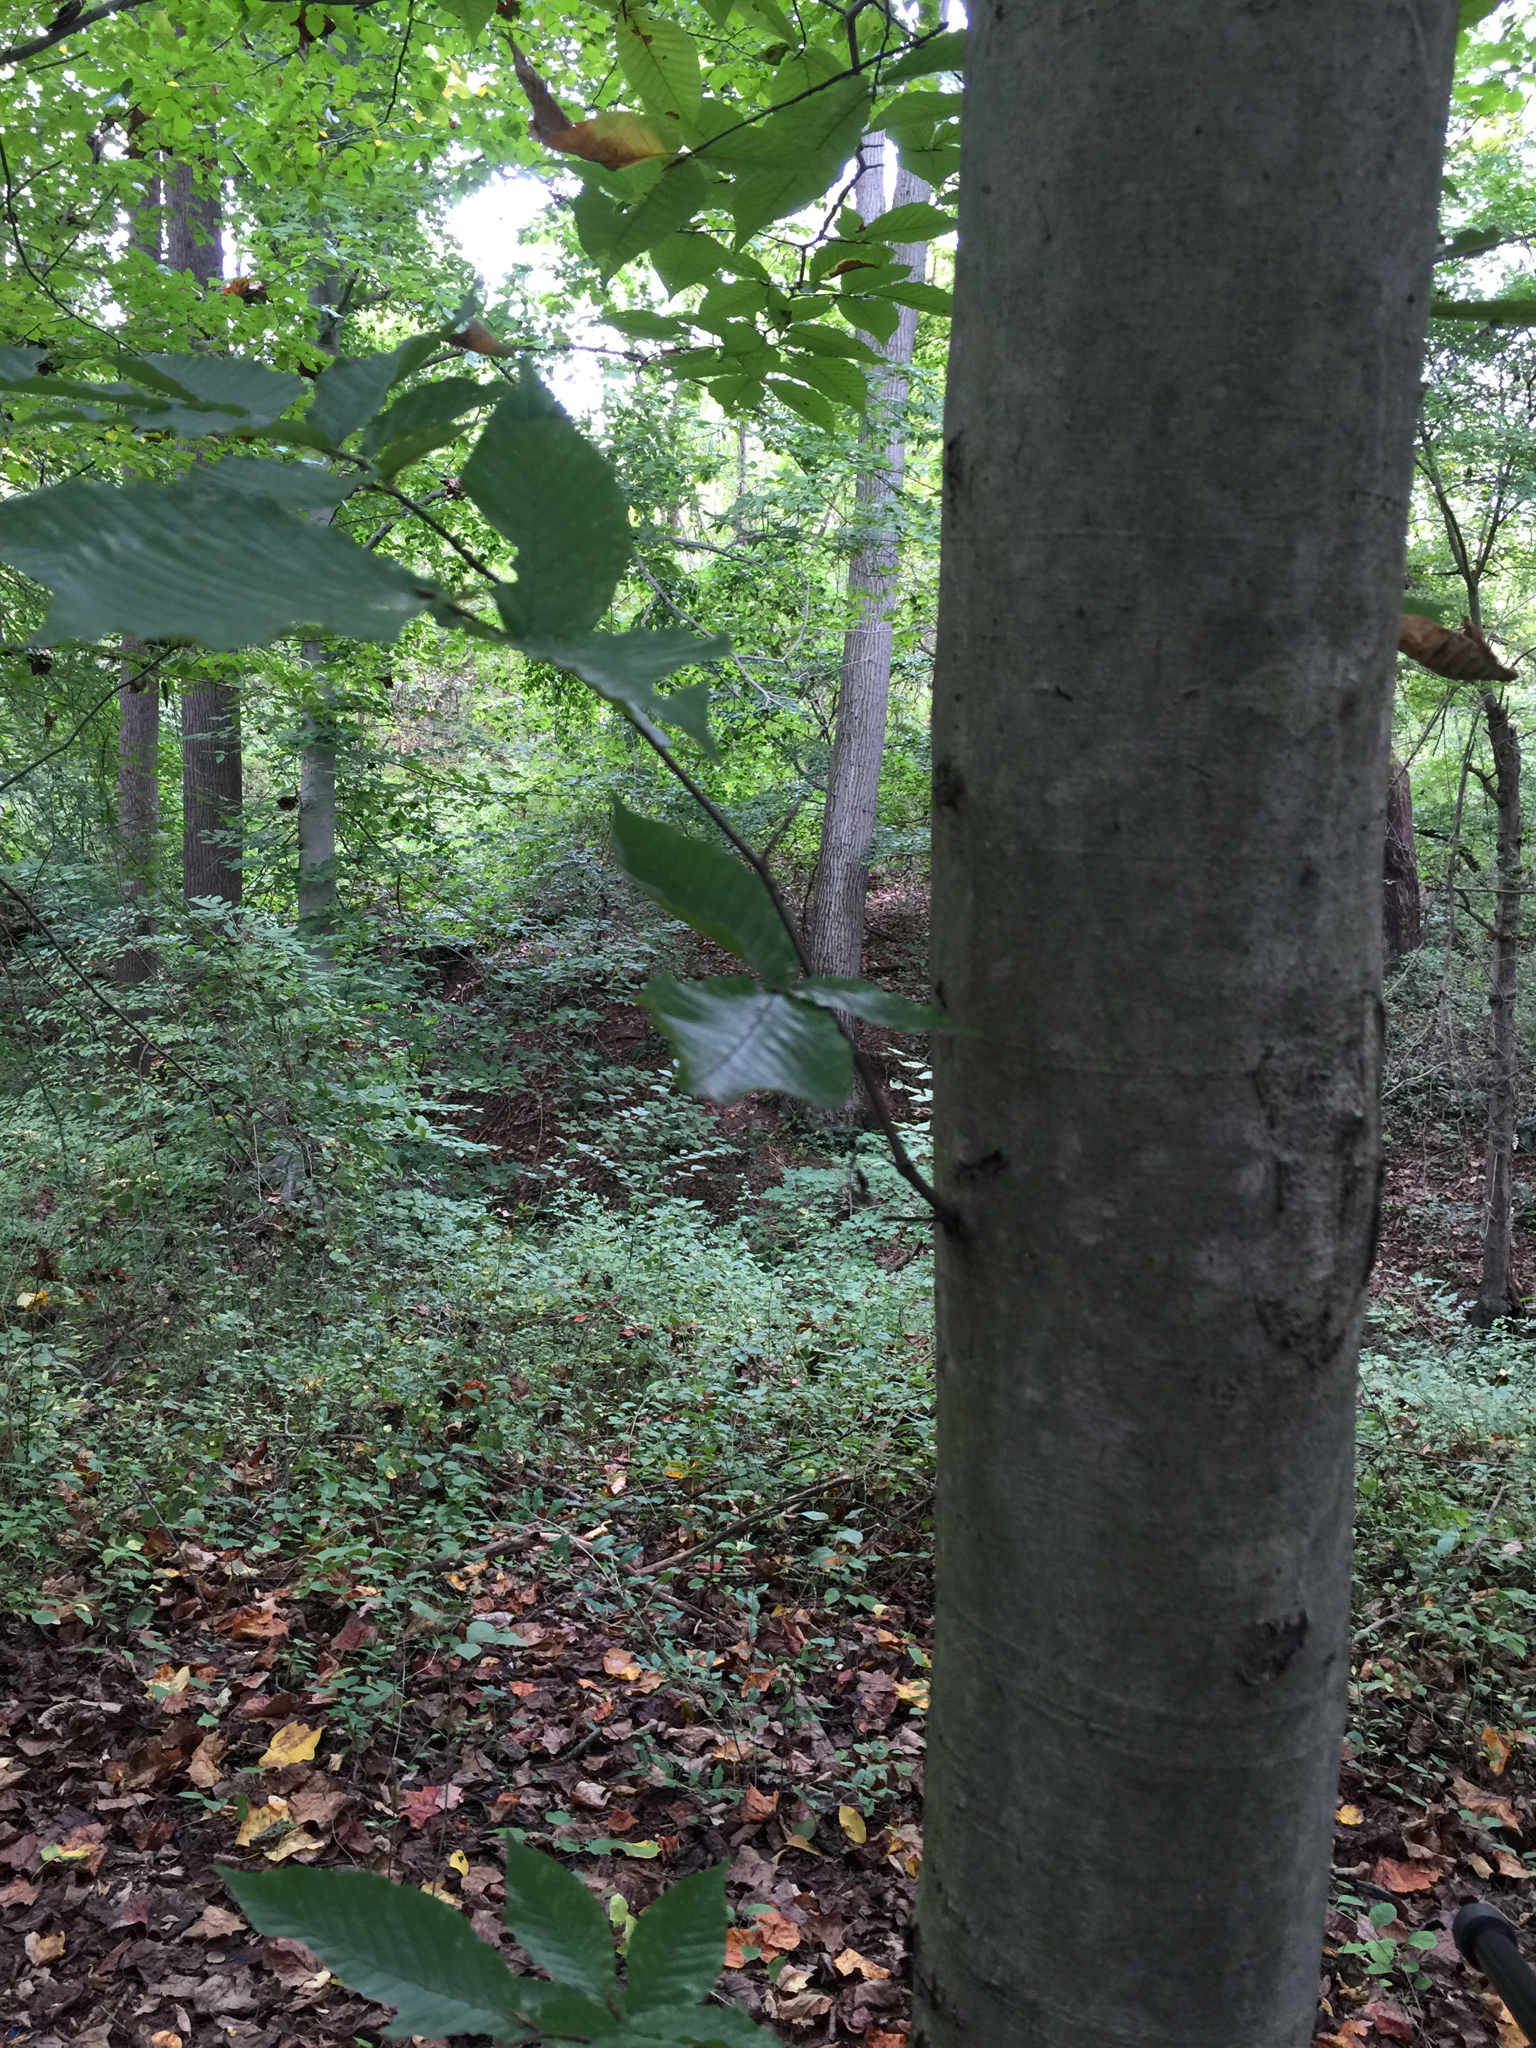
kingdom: Plantae
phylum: Tracheophyta
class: Magnoliopsida
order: Fagales
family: Fagaceae
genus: Fagus
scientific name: Fagus grandifolia
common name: American beech
